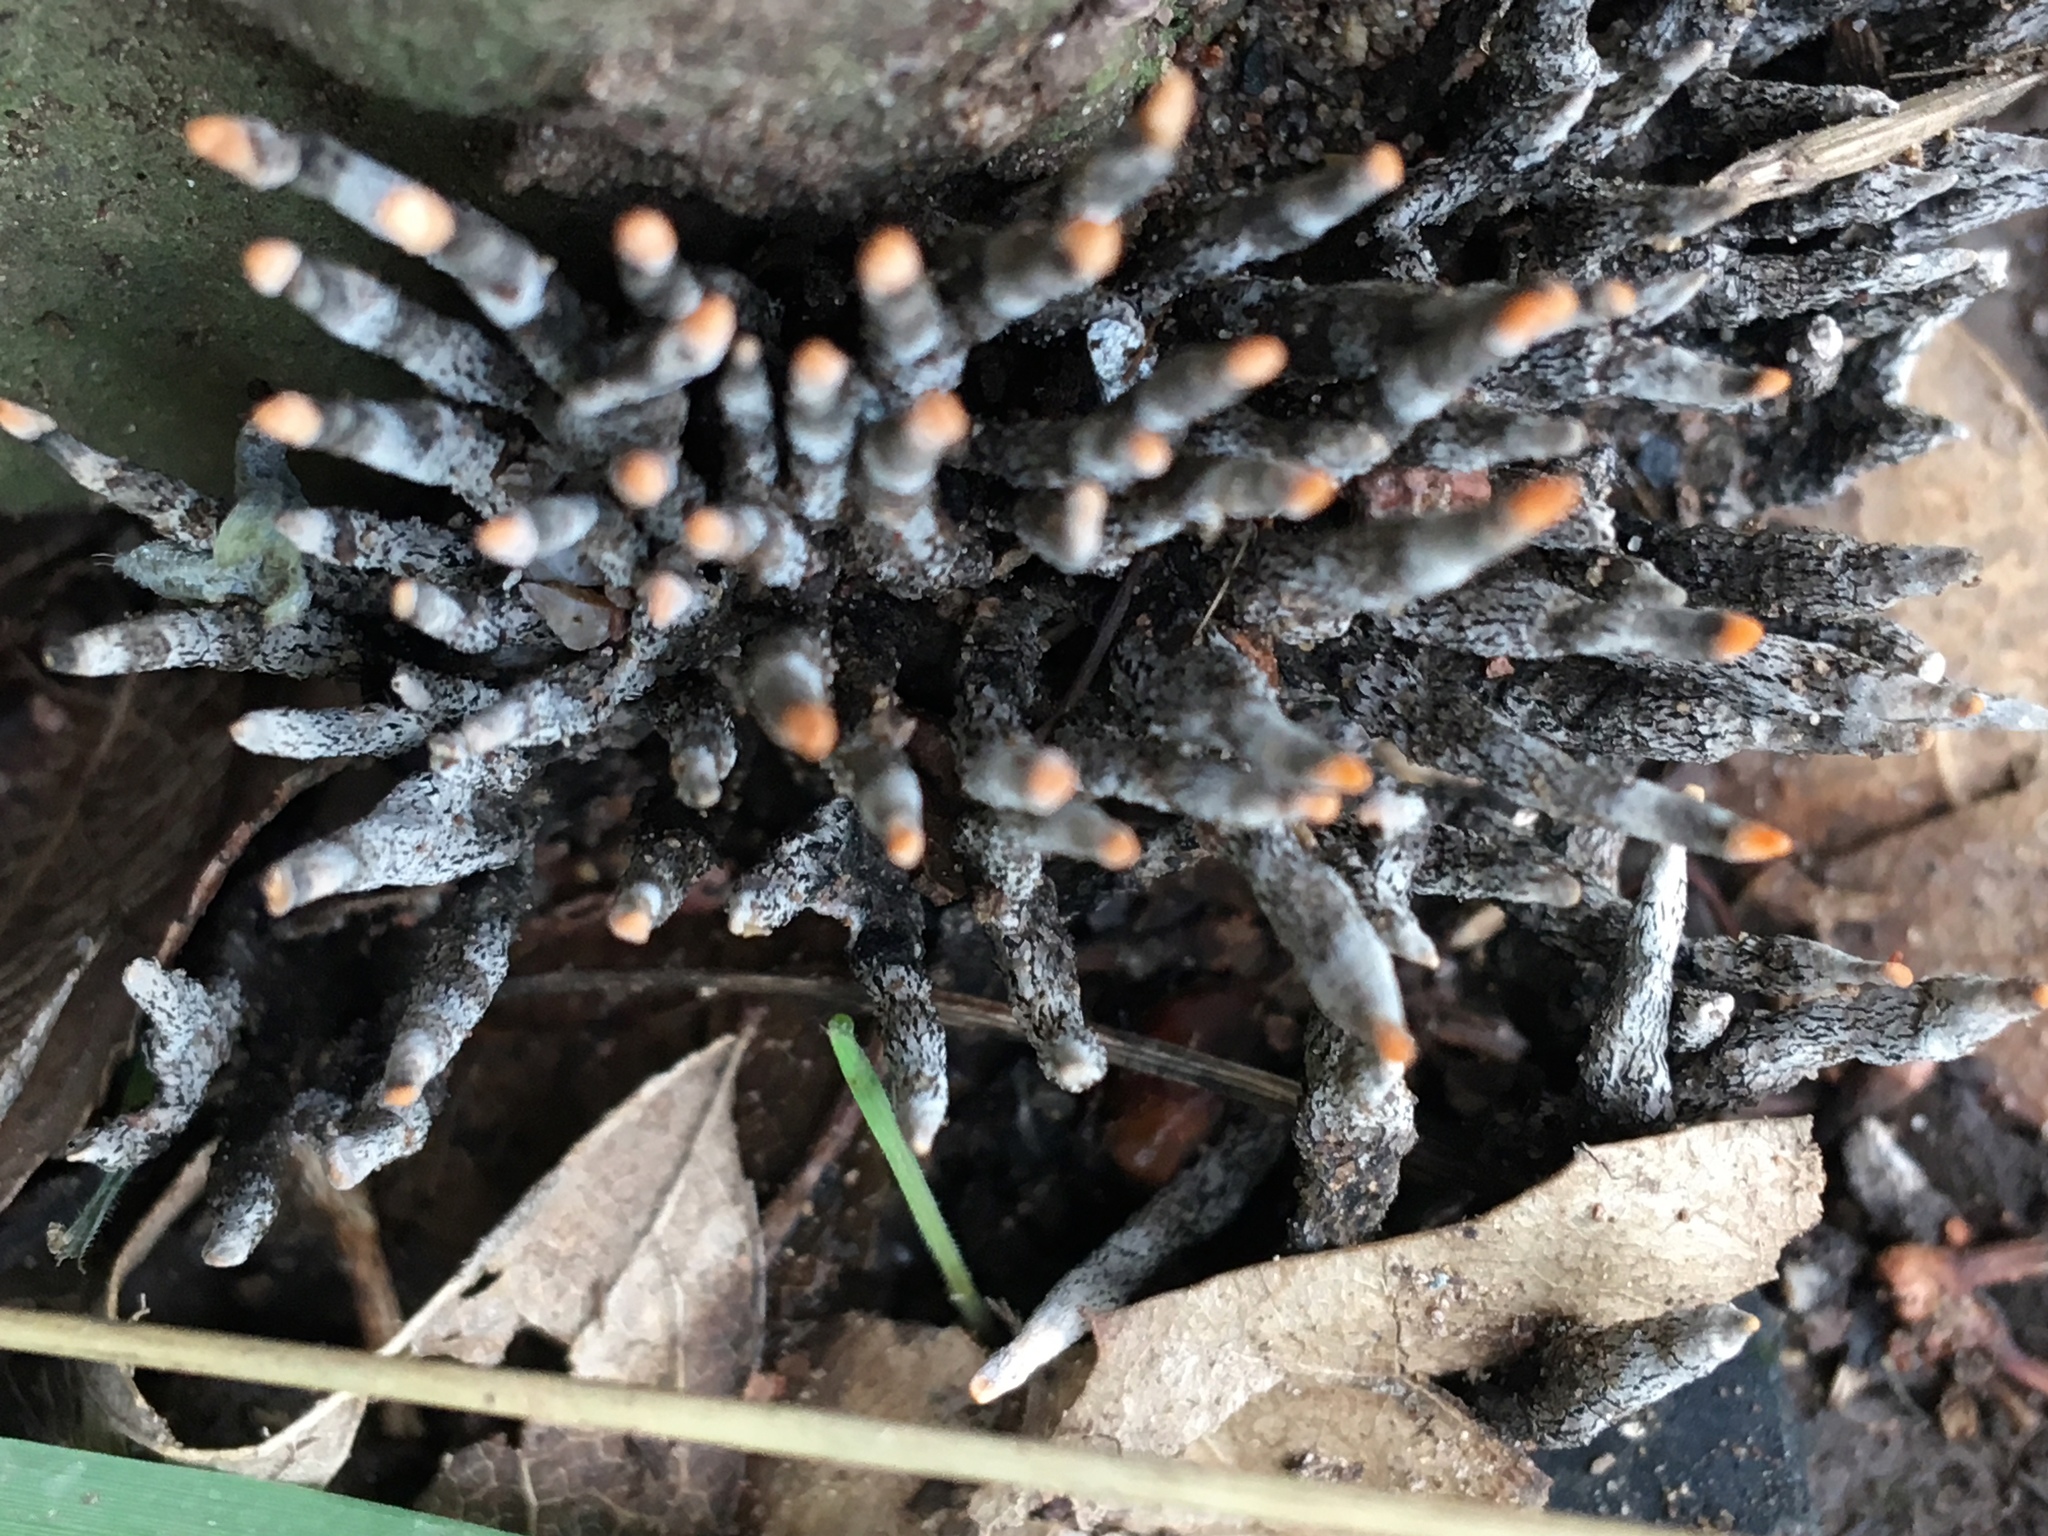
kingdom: Fungi
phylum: Ascomycota
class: Sordariomycetes
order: Xylariales
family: Xylariaceae
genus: Xylaria
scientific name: Xylaria hypoxylon
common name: Candle-snuff fungus
